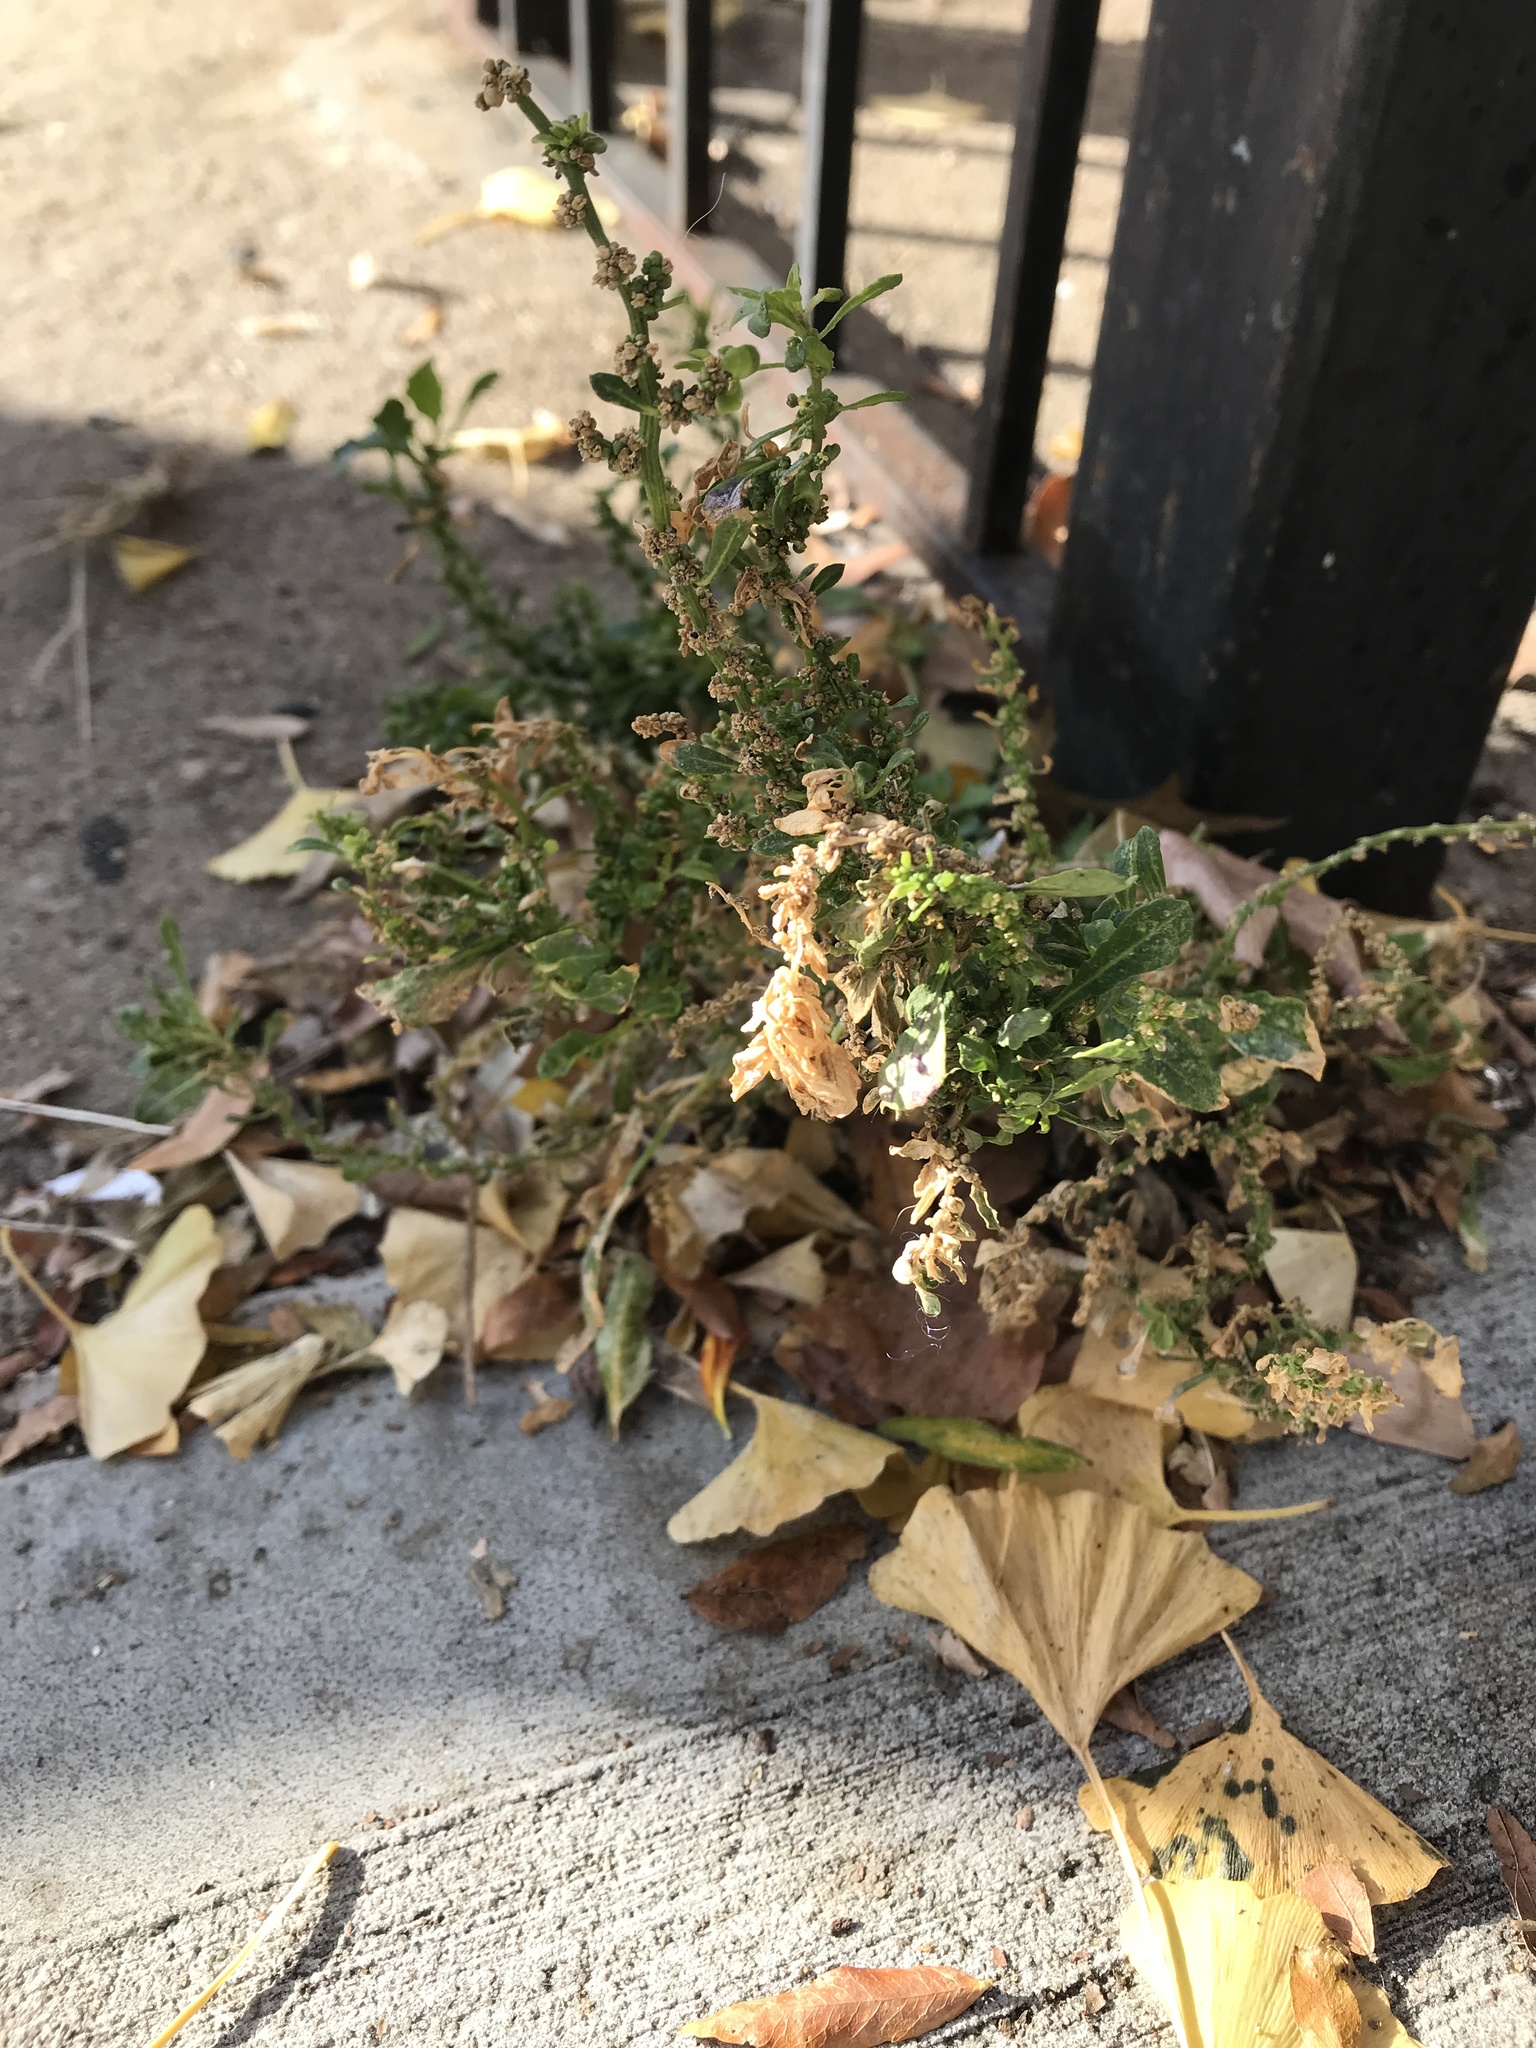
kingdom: Plantae
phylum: Tracheophyta
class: Magnoliopsida
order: Caryophyllales
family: Amaranthaceae
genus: Dysphania
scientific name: Dysphania pumilio
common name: Clammy goosefoot
